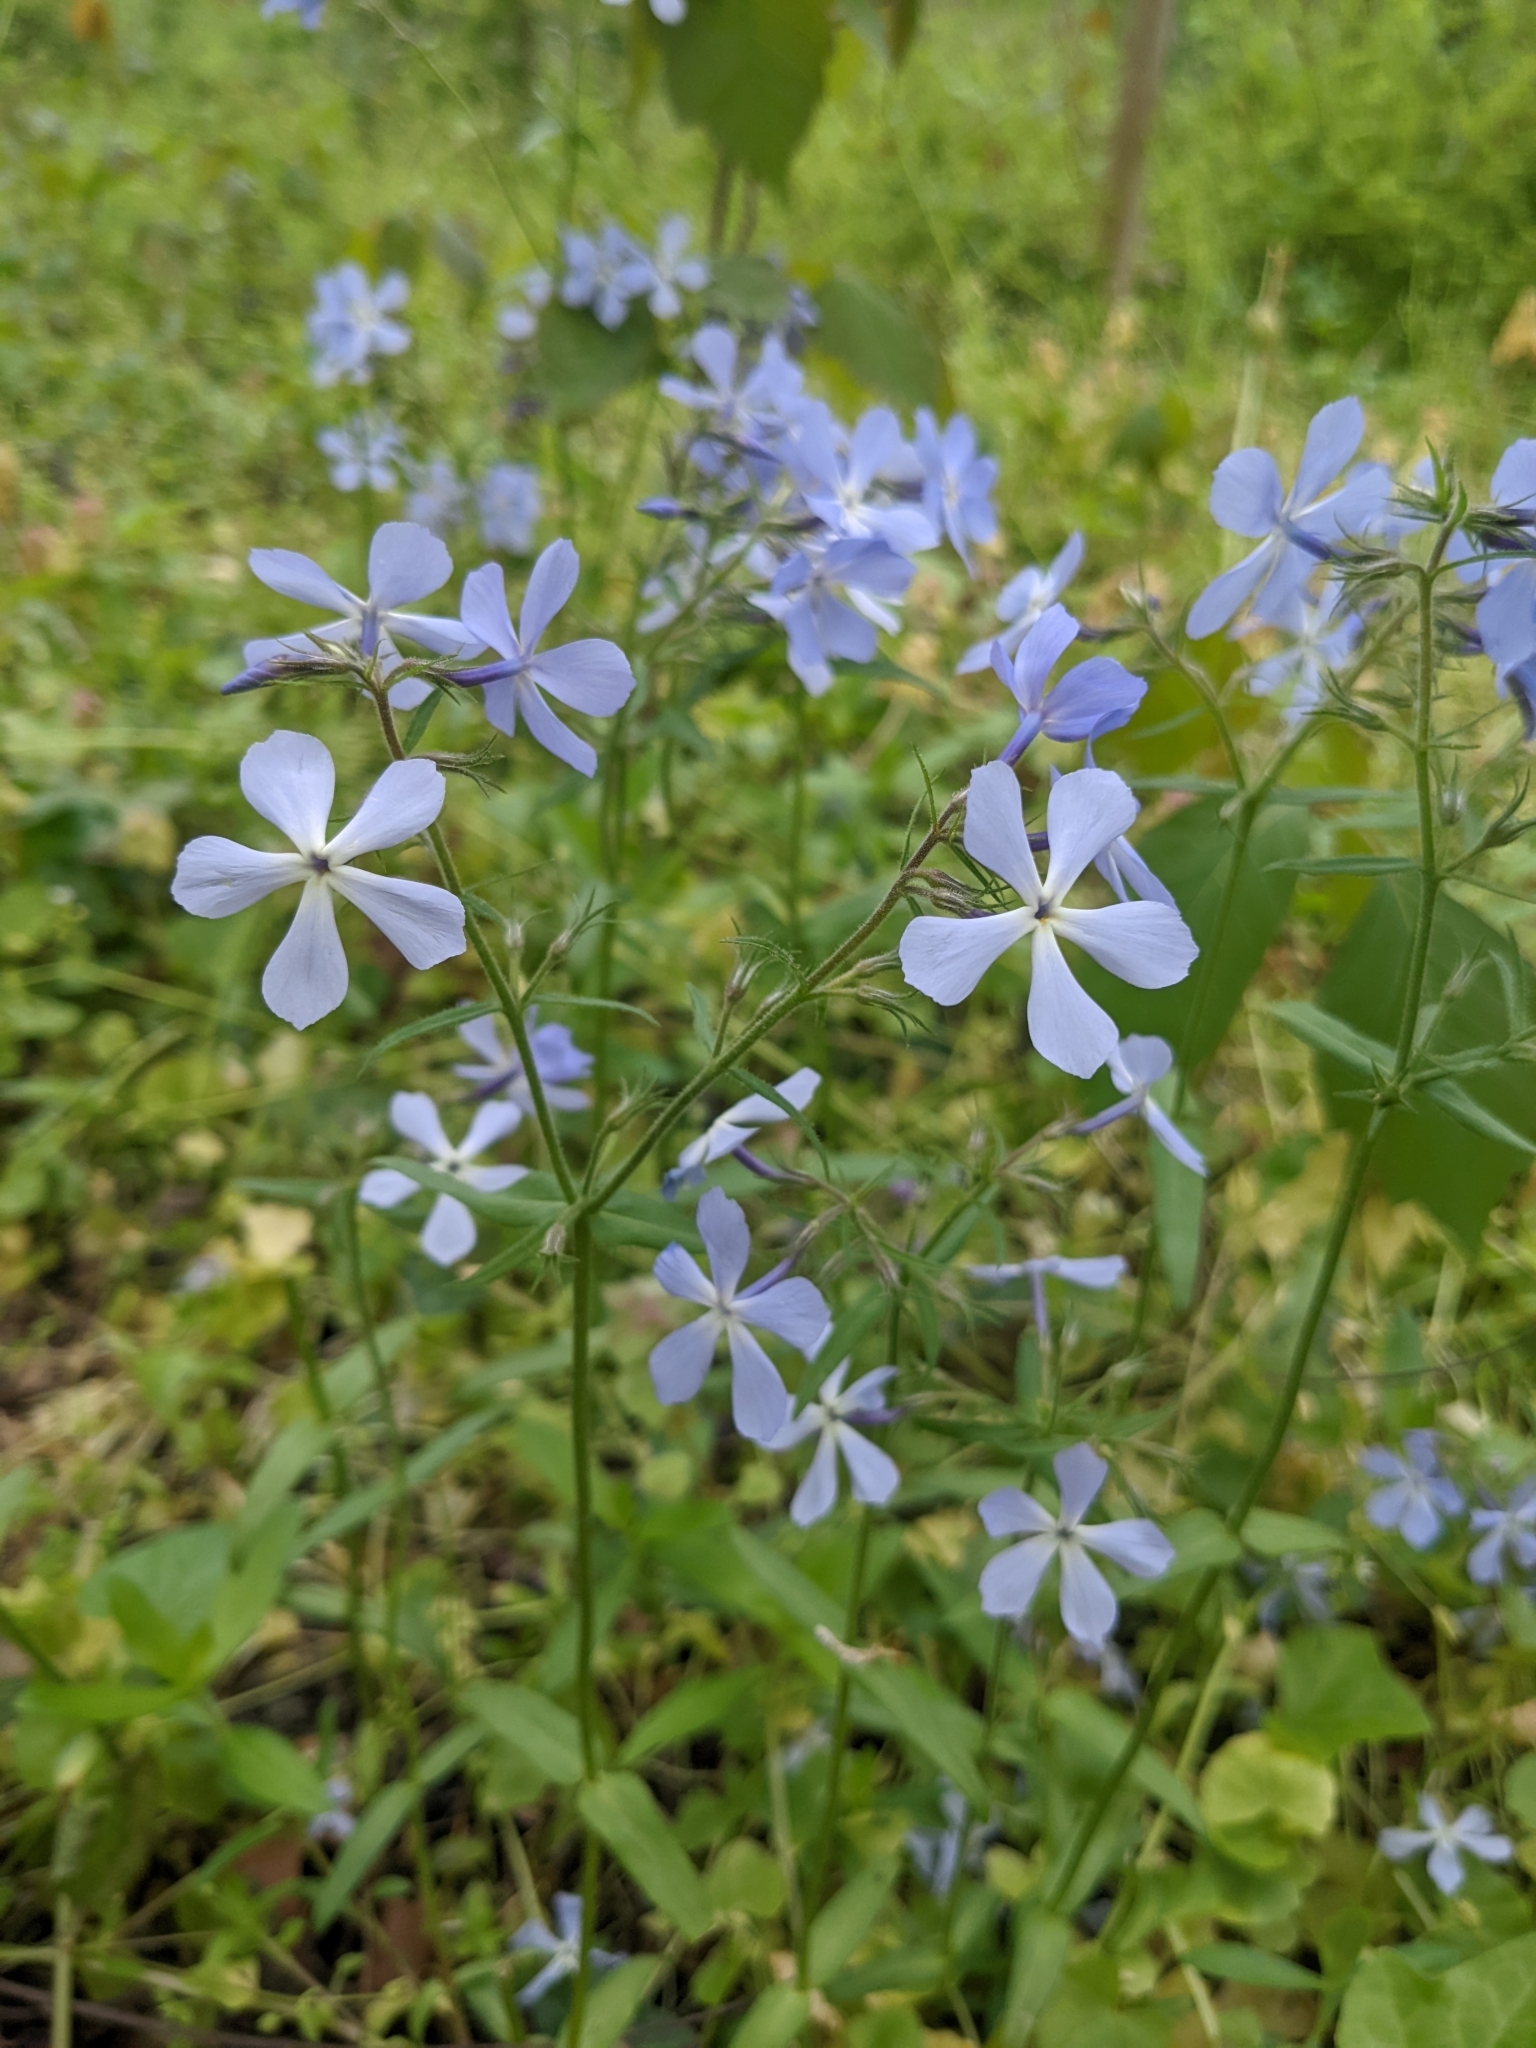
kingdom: Plantae
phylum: Tracheophyta
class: Magnoliopsida
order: Ericales
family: Polemoniaceae
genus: Phlox
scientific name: Phlox divaricata
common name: Blue phlox
